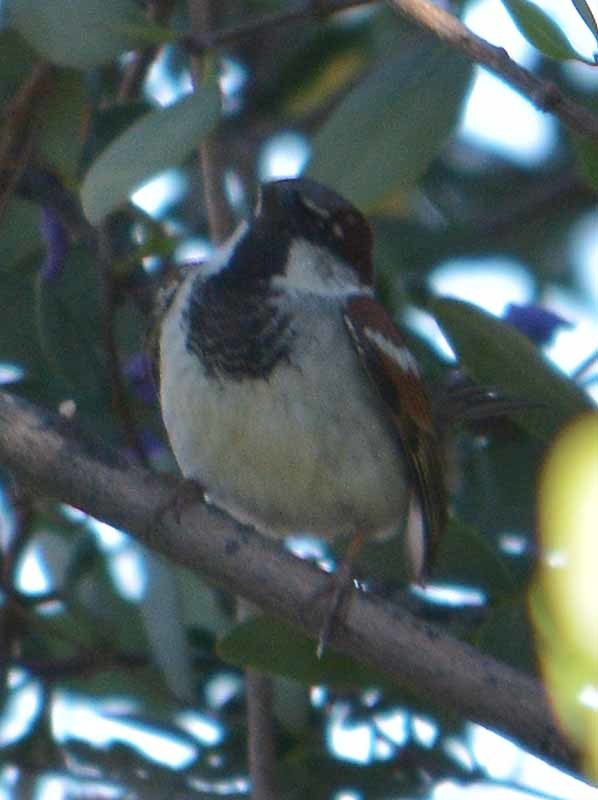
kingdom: Animalia
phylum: Chordata
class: Aves
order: Passeriformes
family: Passeridae
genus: Passer
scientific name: Passer domesticus
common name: House sparrow
